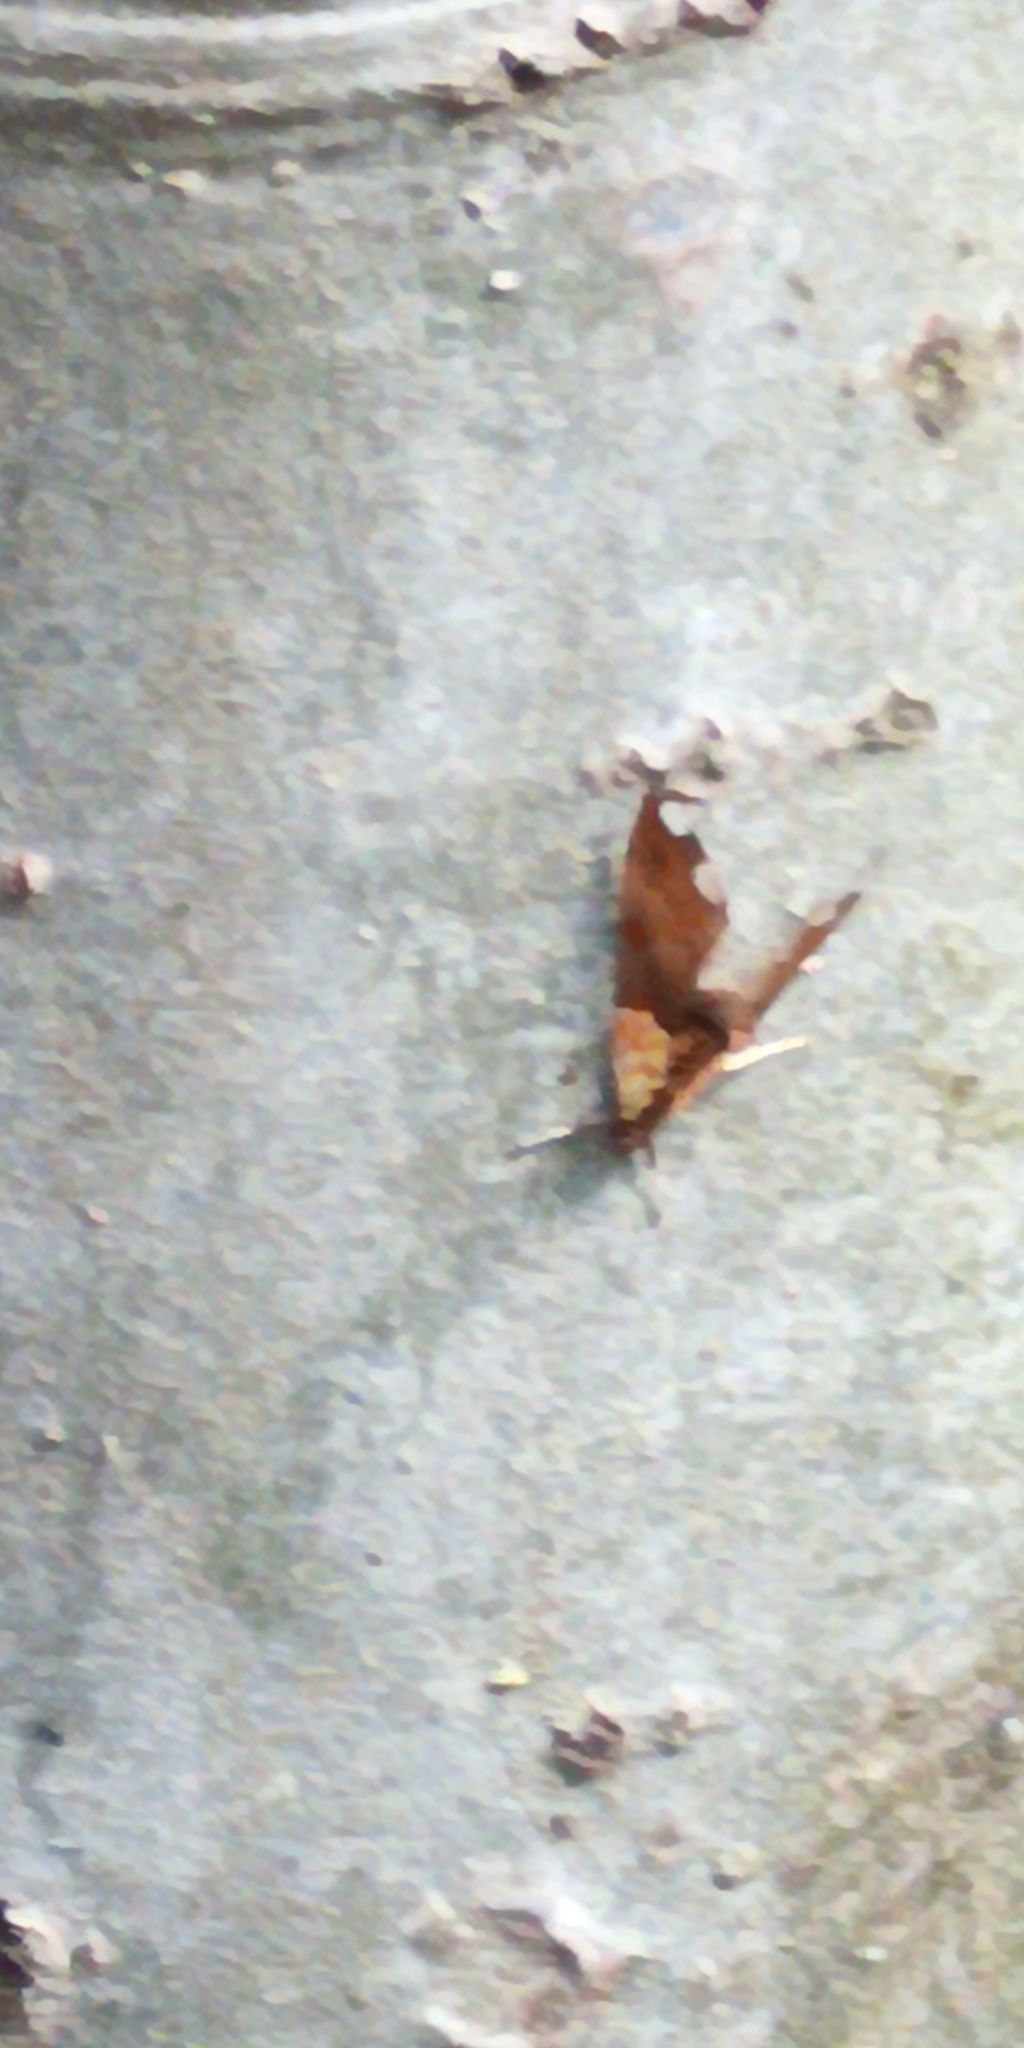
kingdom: Animalia
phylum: Arthropoda
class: Insecta
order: Lepidoptera
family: Crambidae
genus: Agrotera
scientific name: Agrotera nemoralis
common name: Beautiful pearl
